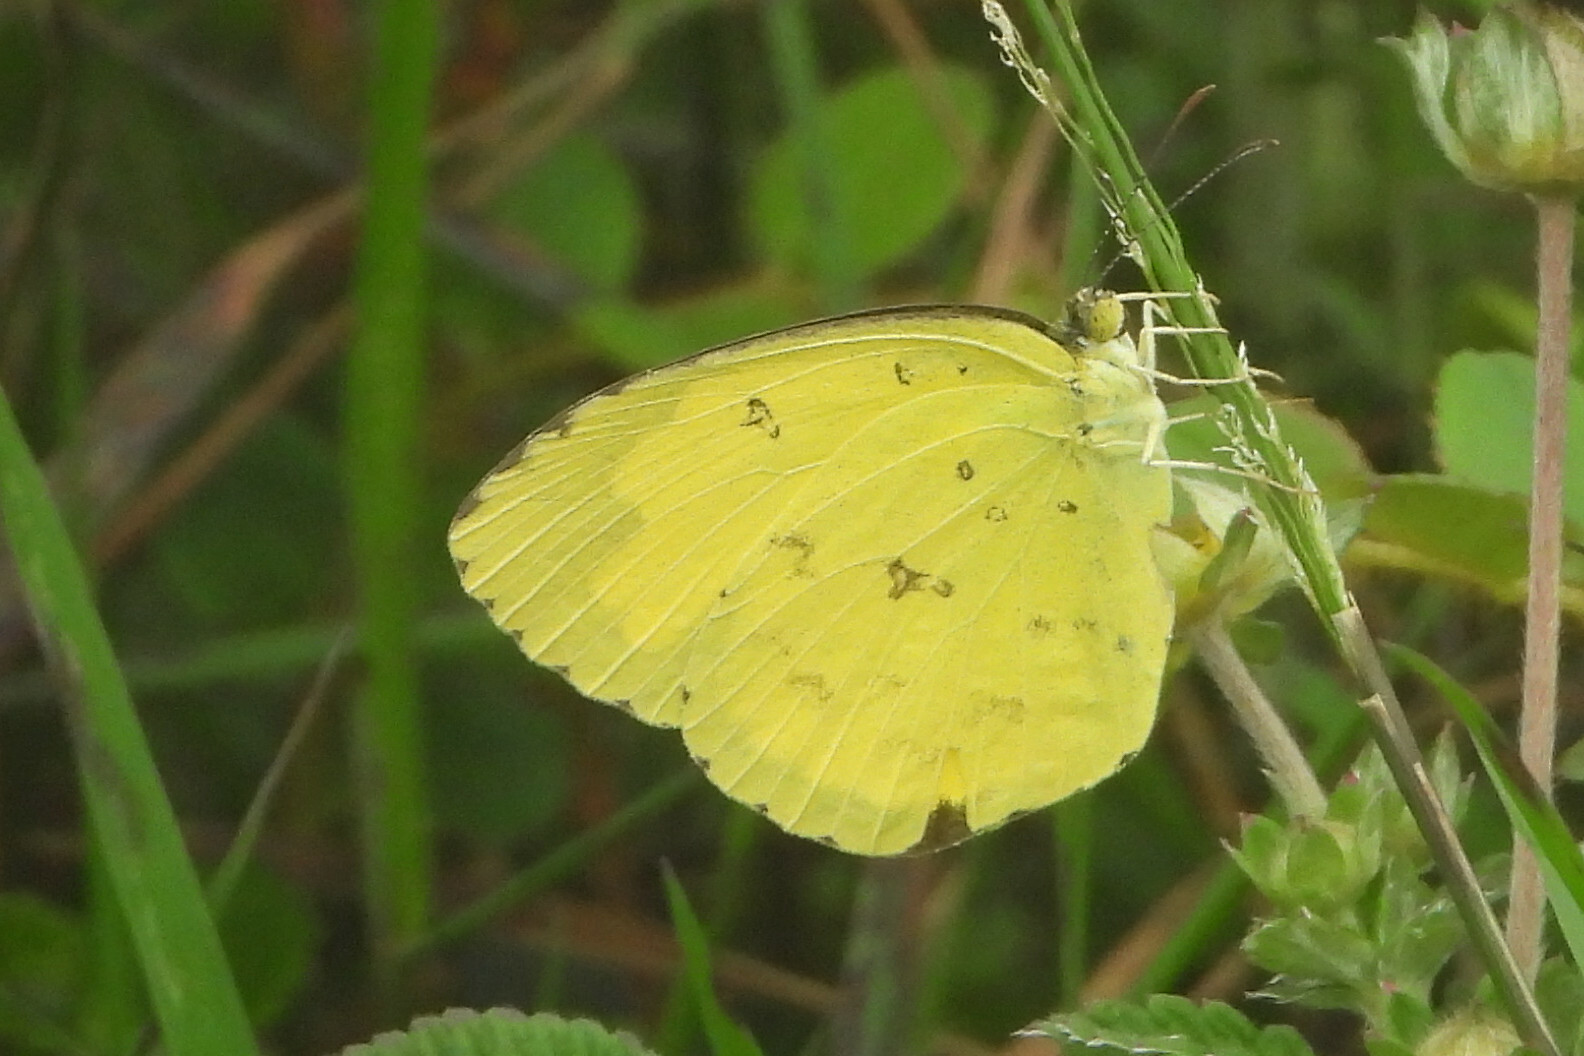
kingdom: Animalia
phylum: Arthropoda
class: Insecta
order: Lepidoptera
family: Pieridae
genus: Eurema
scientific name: Eurema hecabe
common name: Pale grass yellow
